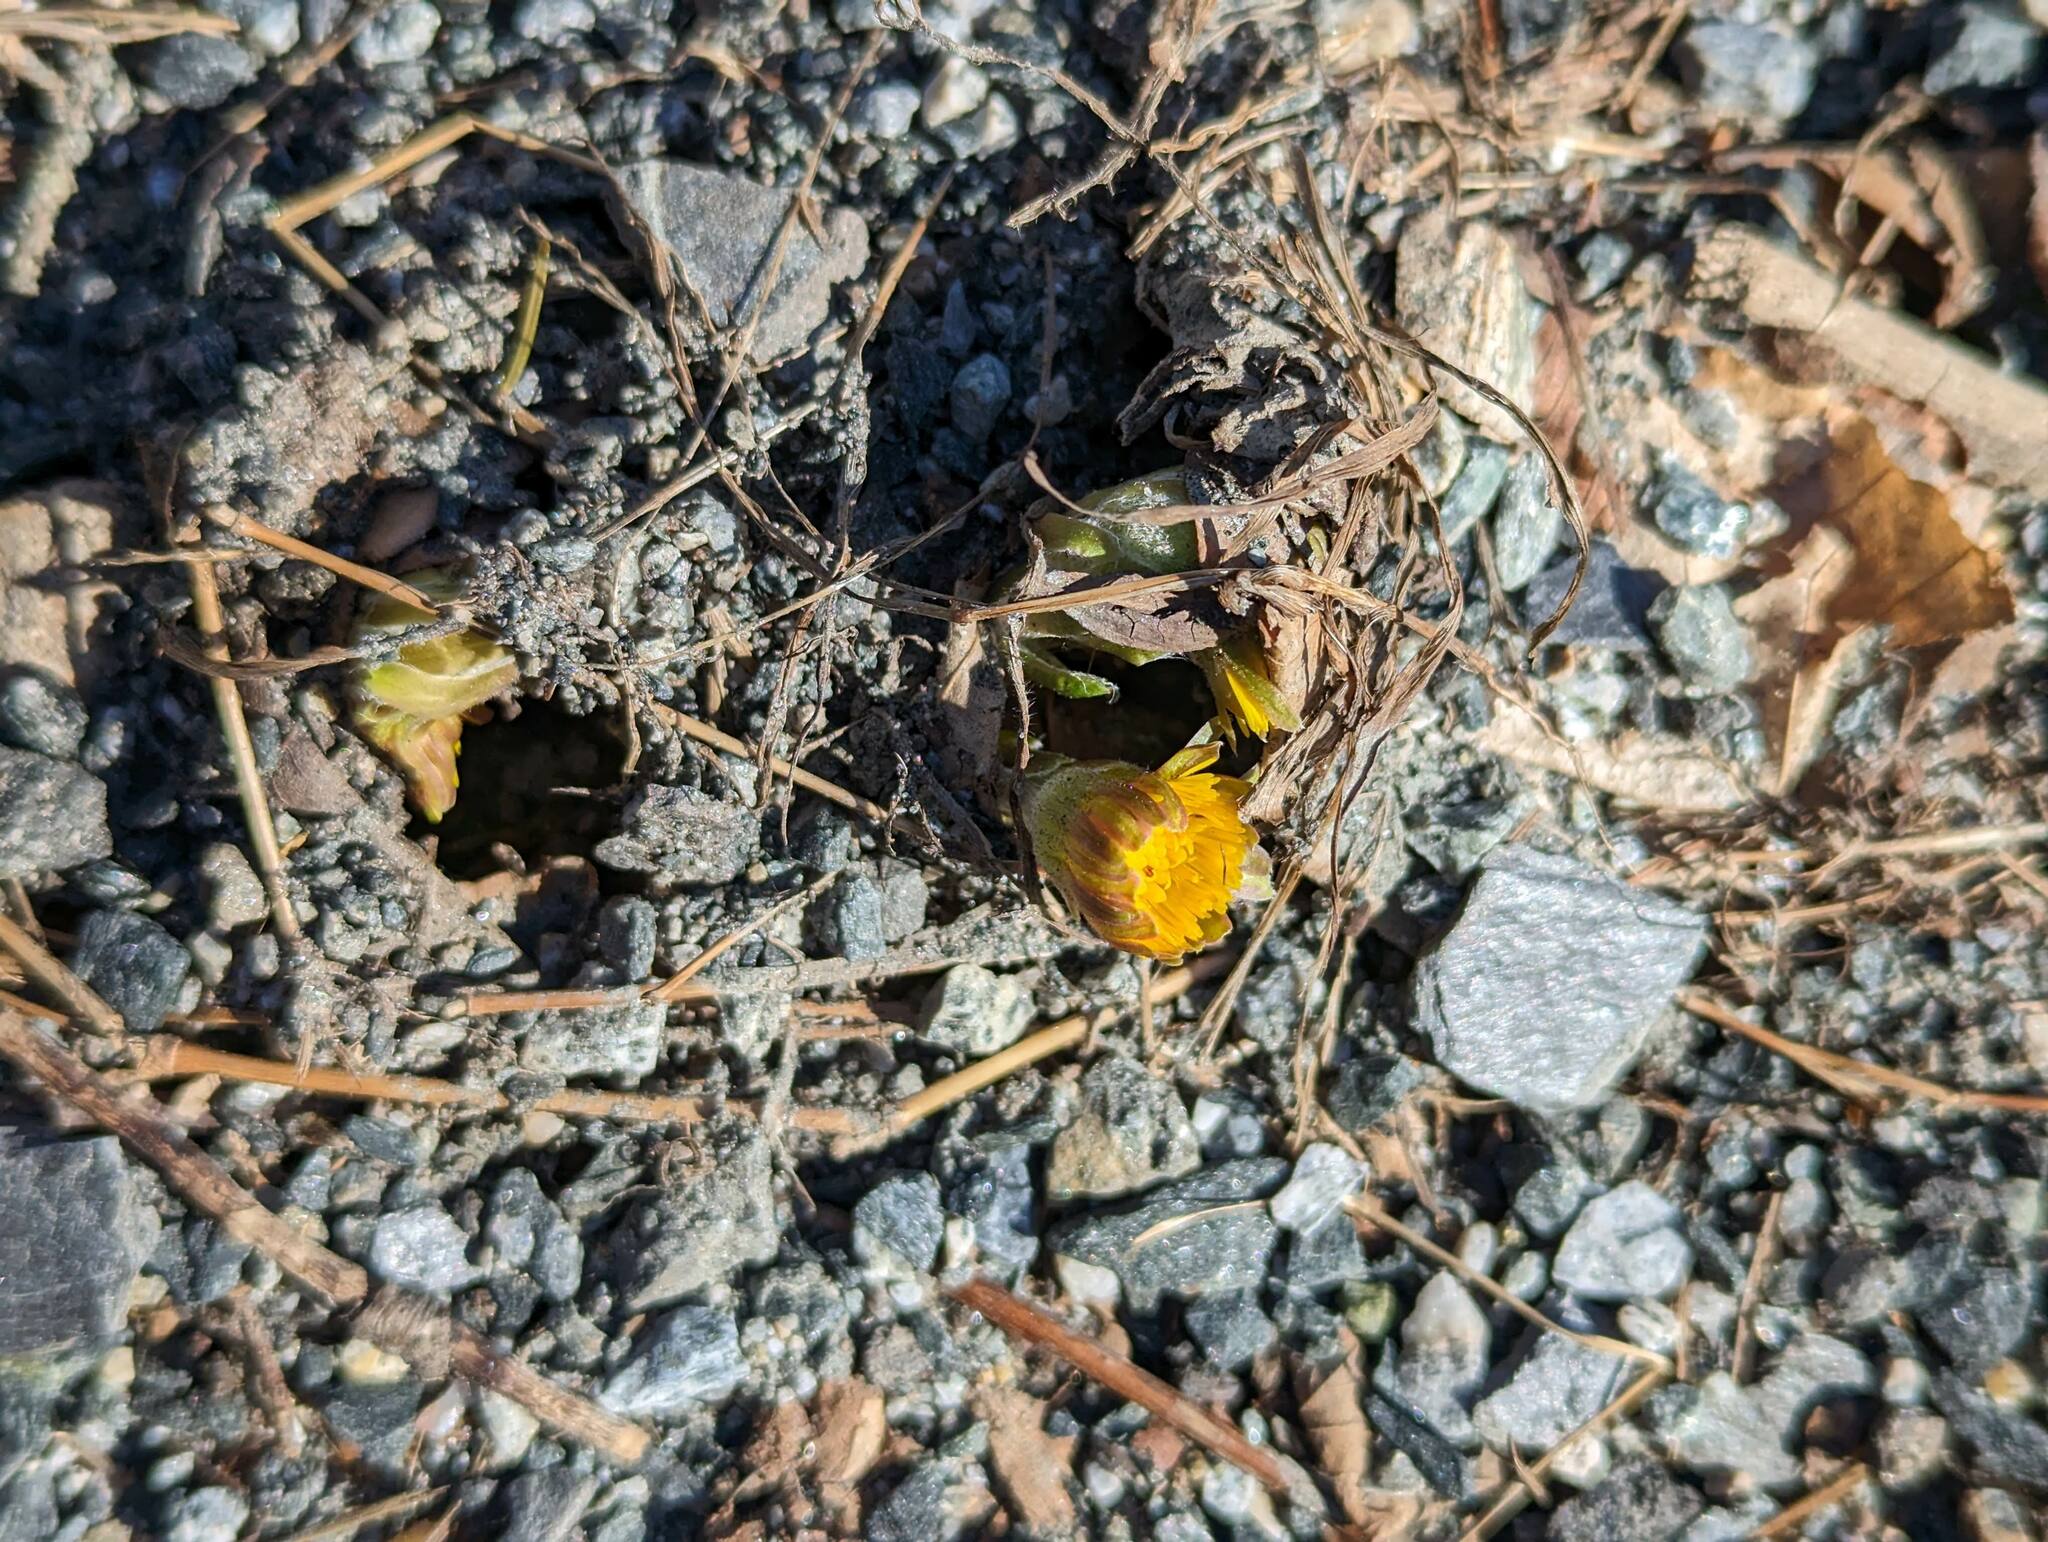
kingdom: Plantae
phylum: Tracheophyta
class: Magnoliopsida
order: Asterales
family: Asteraceae
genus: Tussilago
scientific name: Tussilago farfara
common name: Coltsfoot
